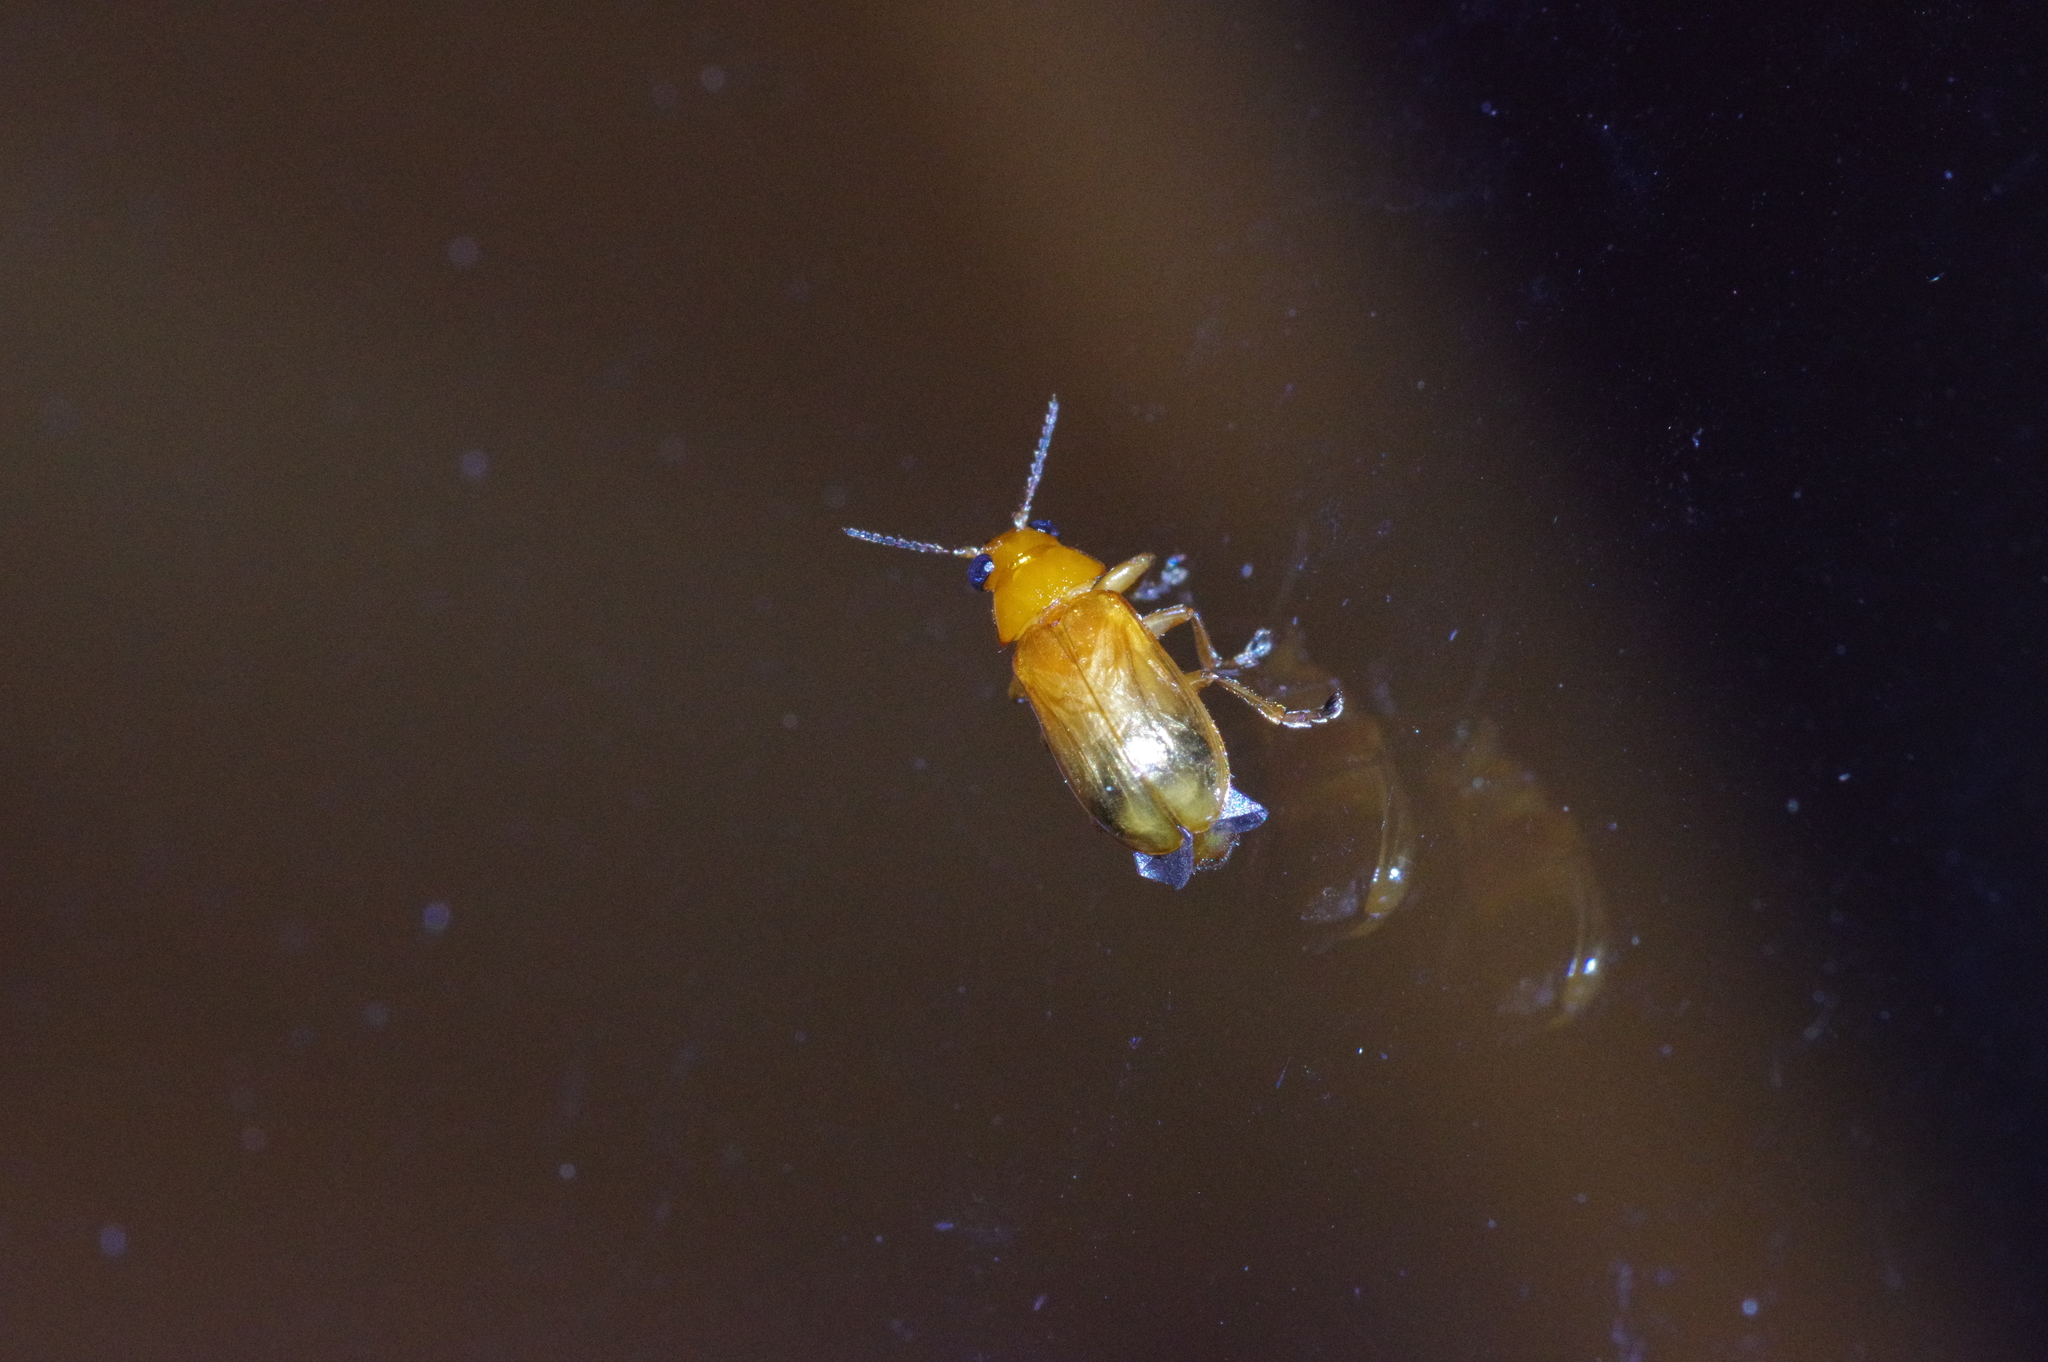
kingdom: Animalia
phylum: Arthropoda
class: Insecta
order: Coleoptera
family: Chrysomelidae
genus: Smaragdina
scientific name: Smaragdina
